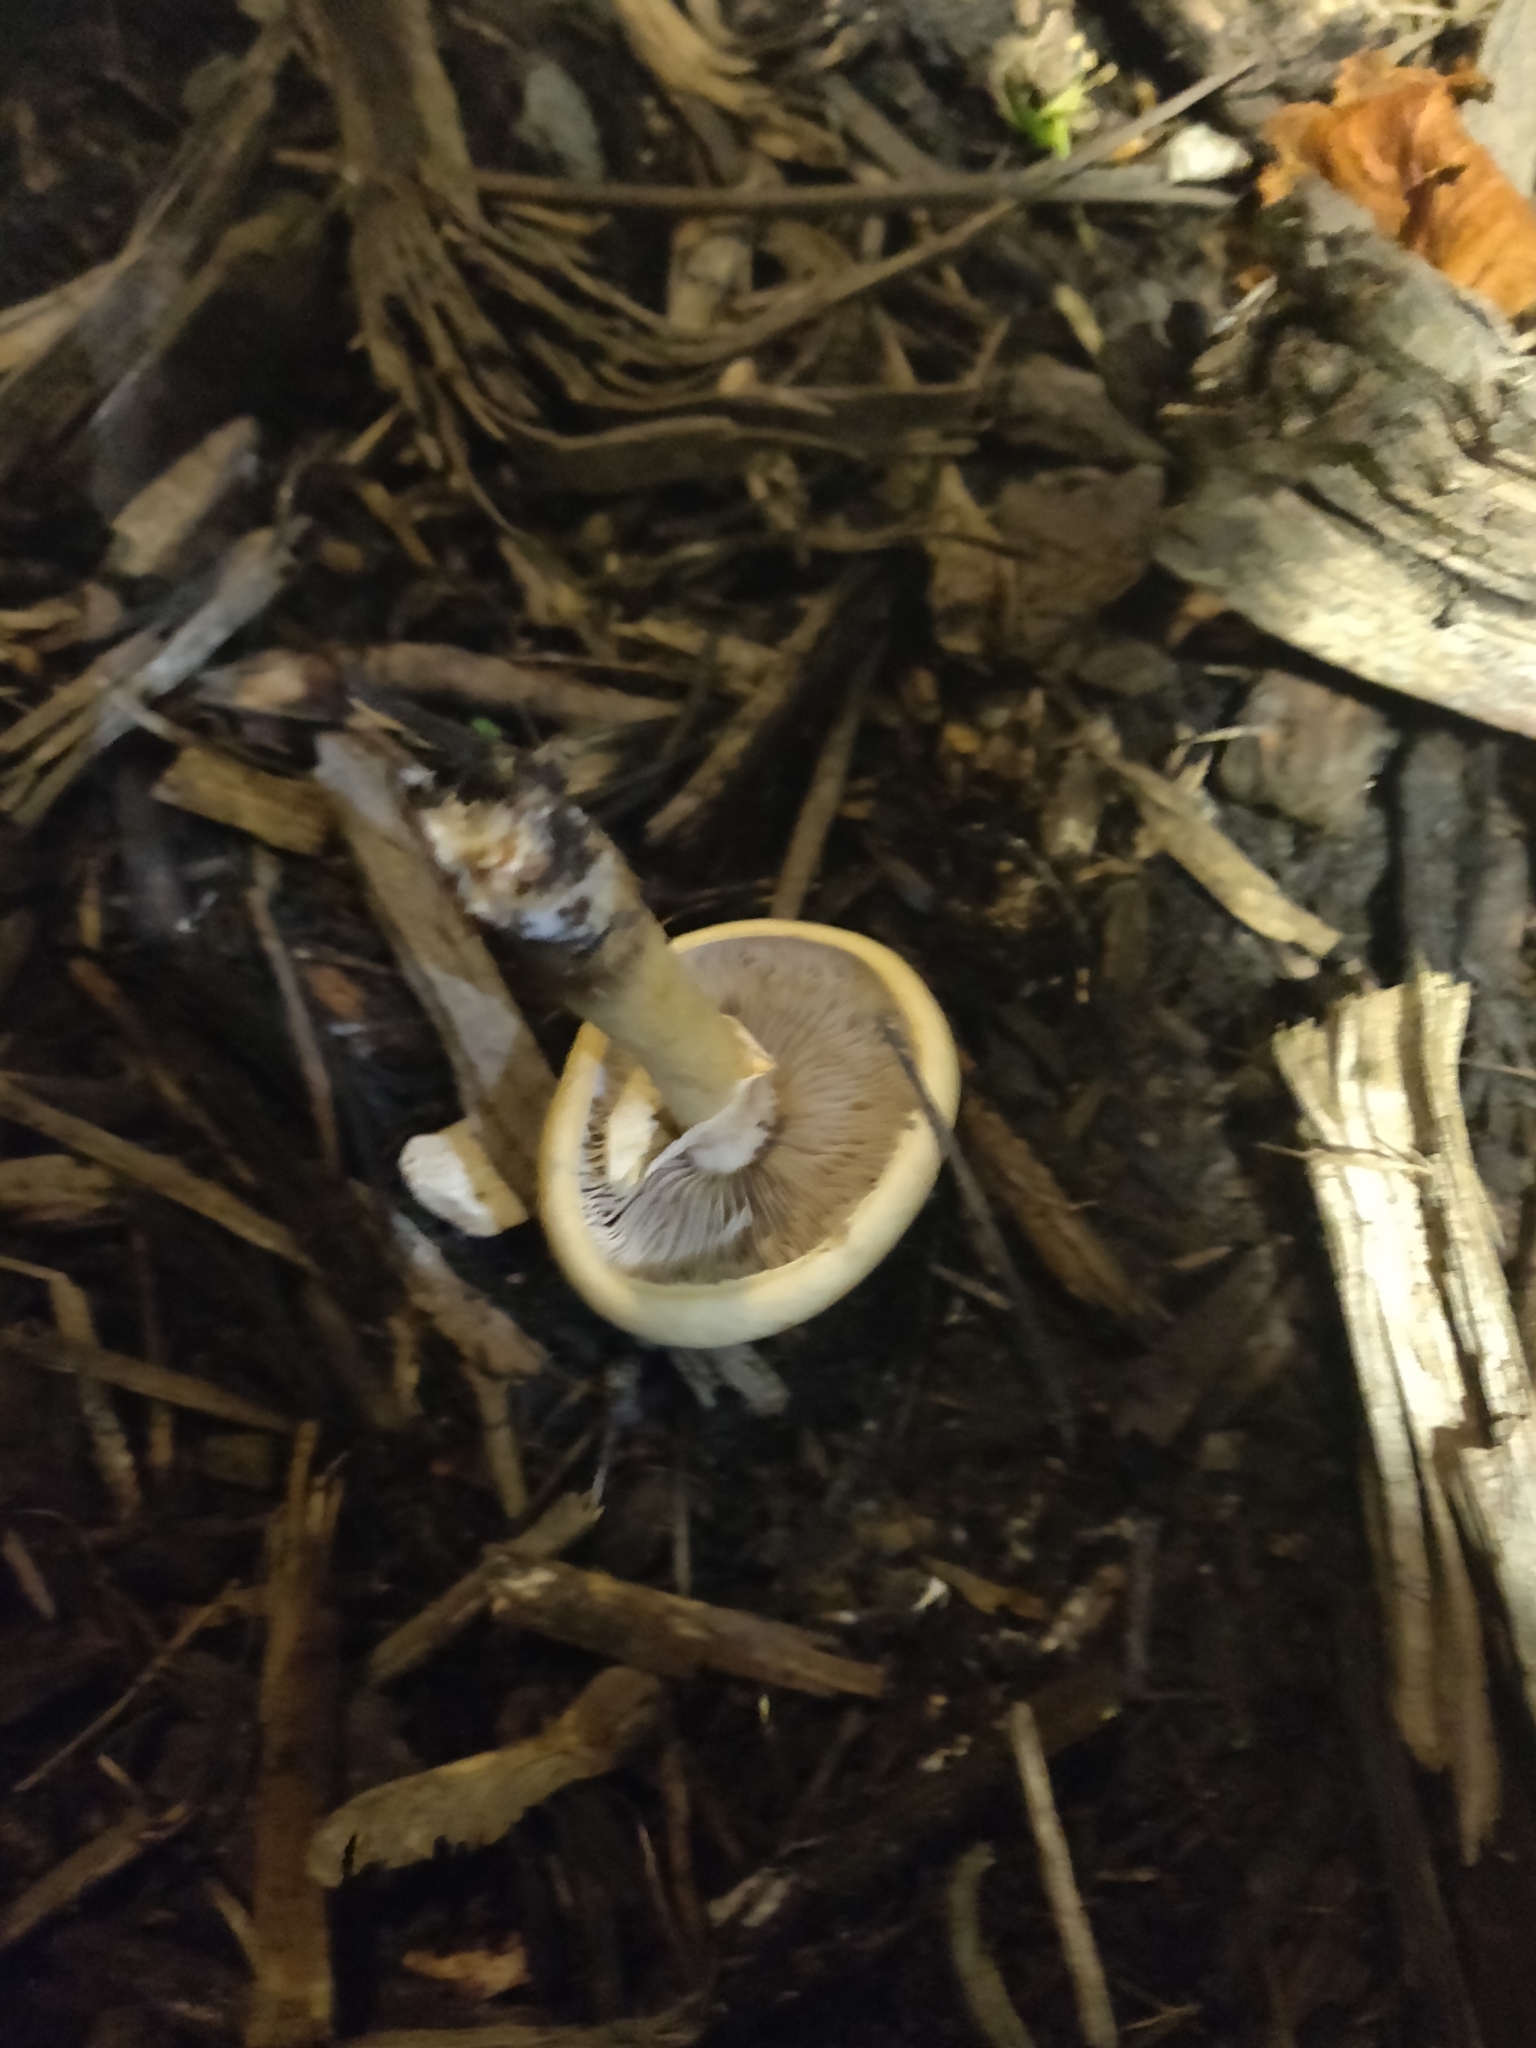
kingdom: Fungi
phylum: Basidiomycota
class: Agaricomycetes
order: Agaricales
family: Strophariaceae
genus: Agrocybe
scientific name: Agrocybe praecox
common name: Spring fieldcap
